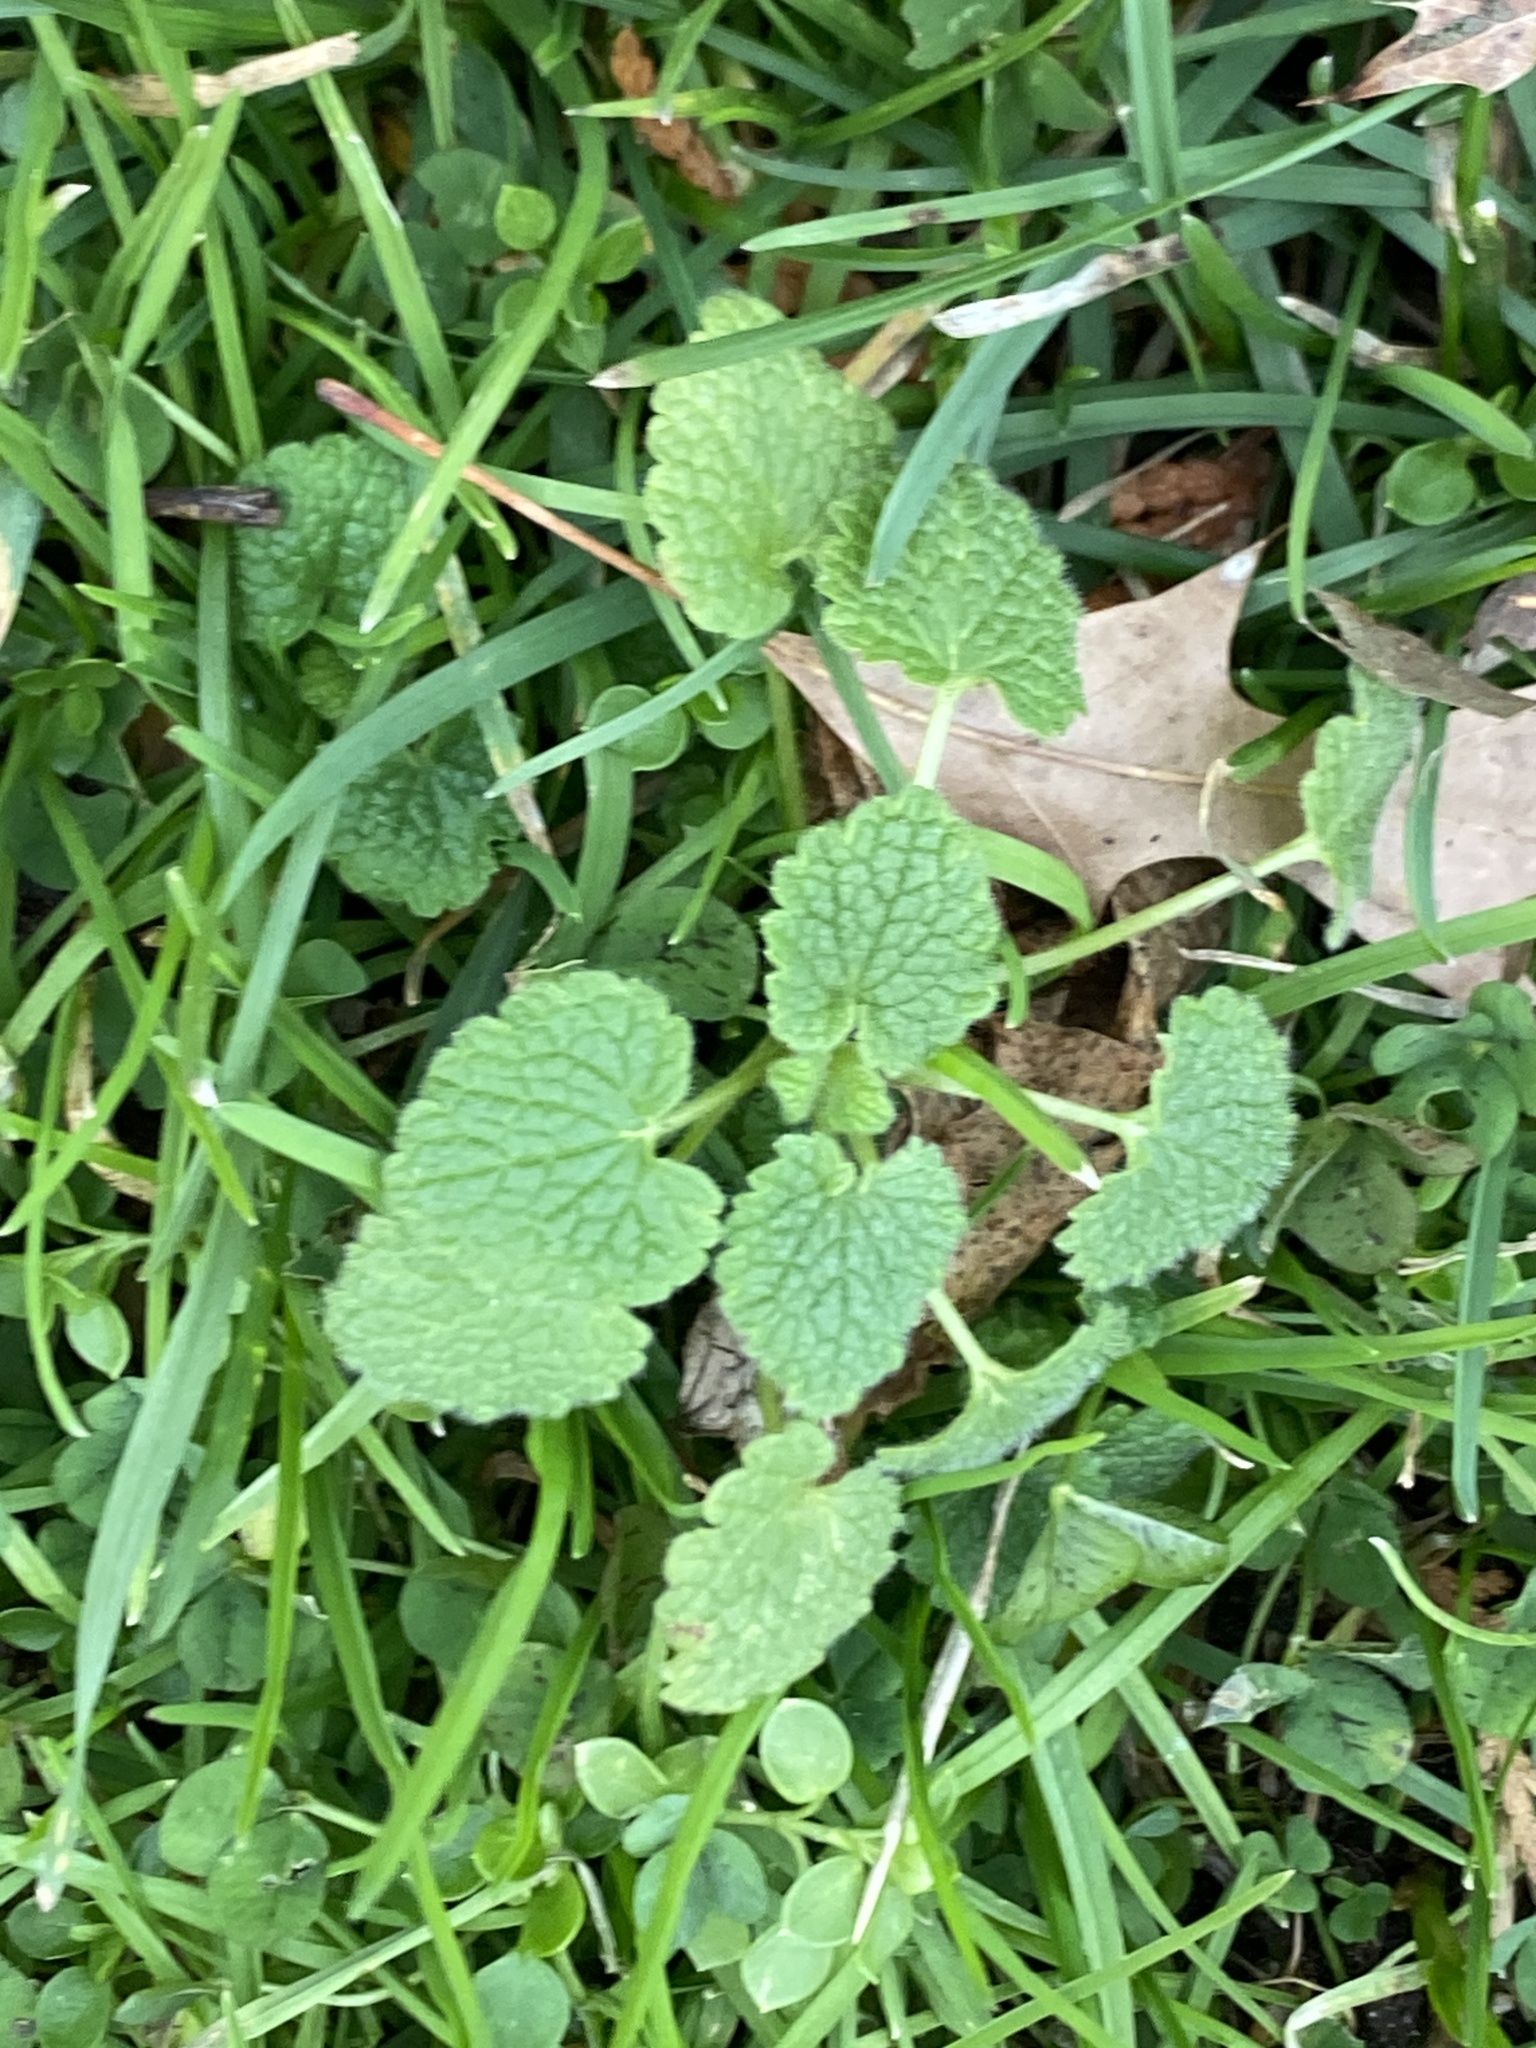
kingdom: Plantae
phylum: Tracheophyta
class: Magnoliopsida
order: Lamiales
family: Lamiaceae
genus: Lamium
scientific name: Lamium purpureum
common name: Red dead-nettle
